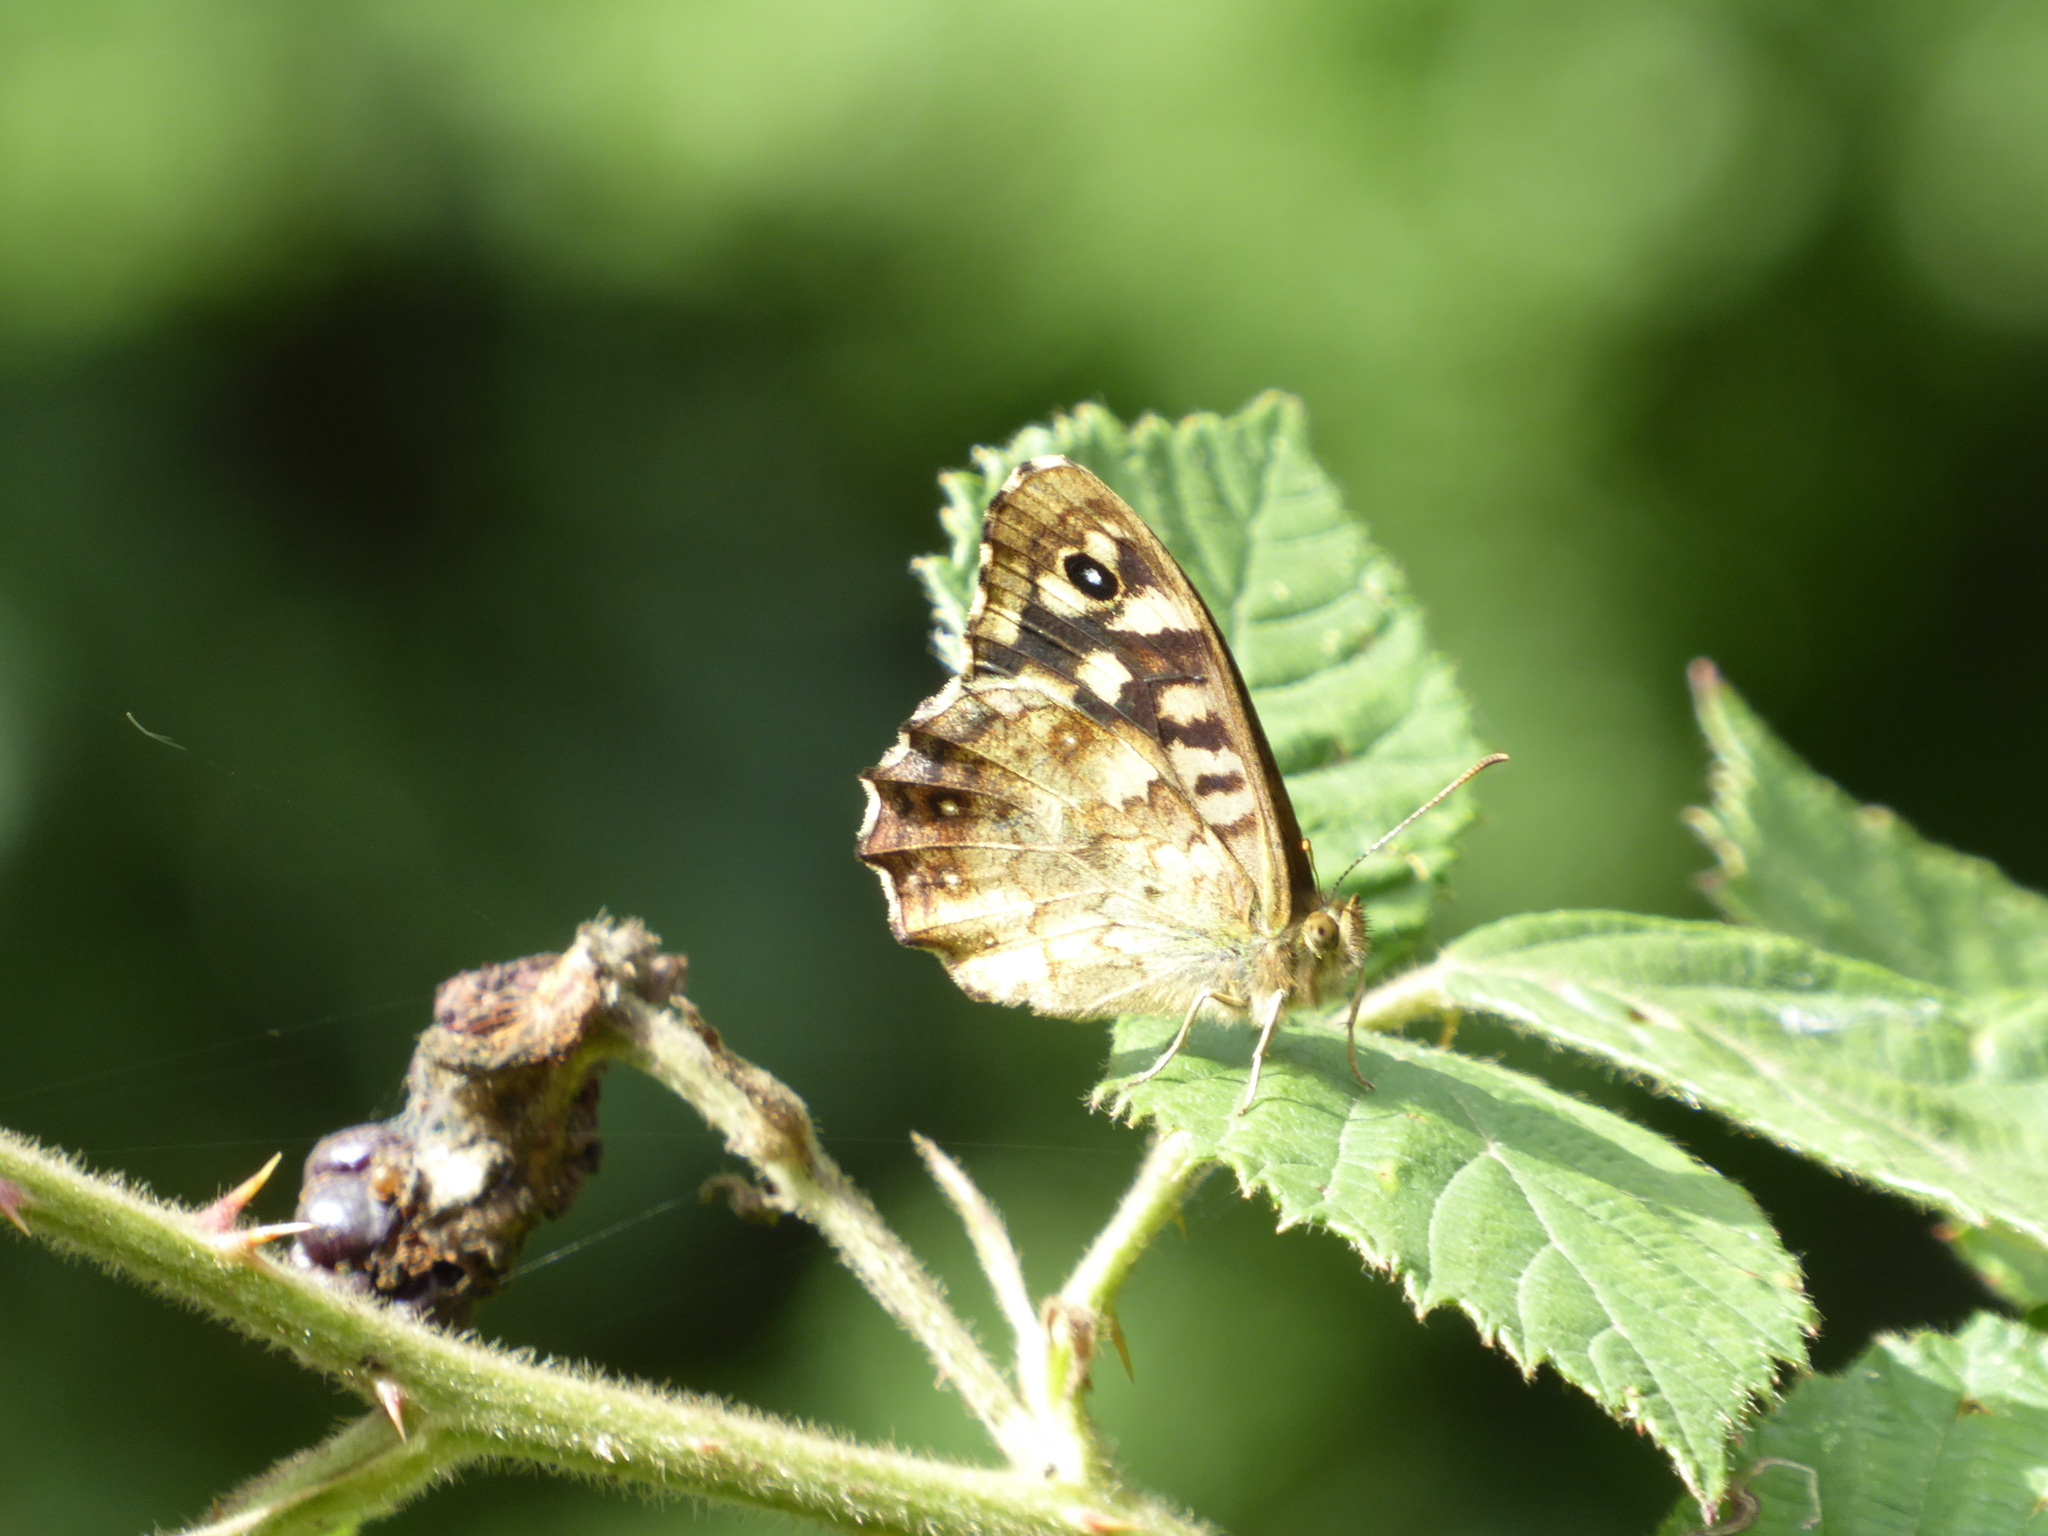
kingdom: Animalia
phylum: Arthropoda
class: Insecta
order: Lepidoptera
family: Nymphalidae
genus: Pararge
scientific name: Pararge aegeria
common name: Speckled wood
